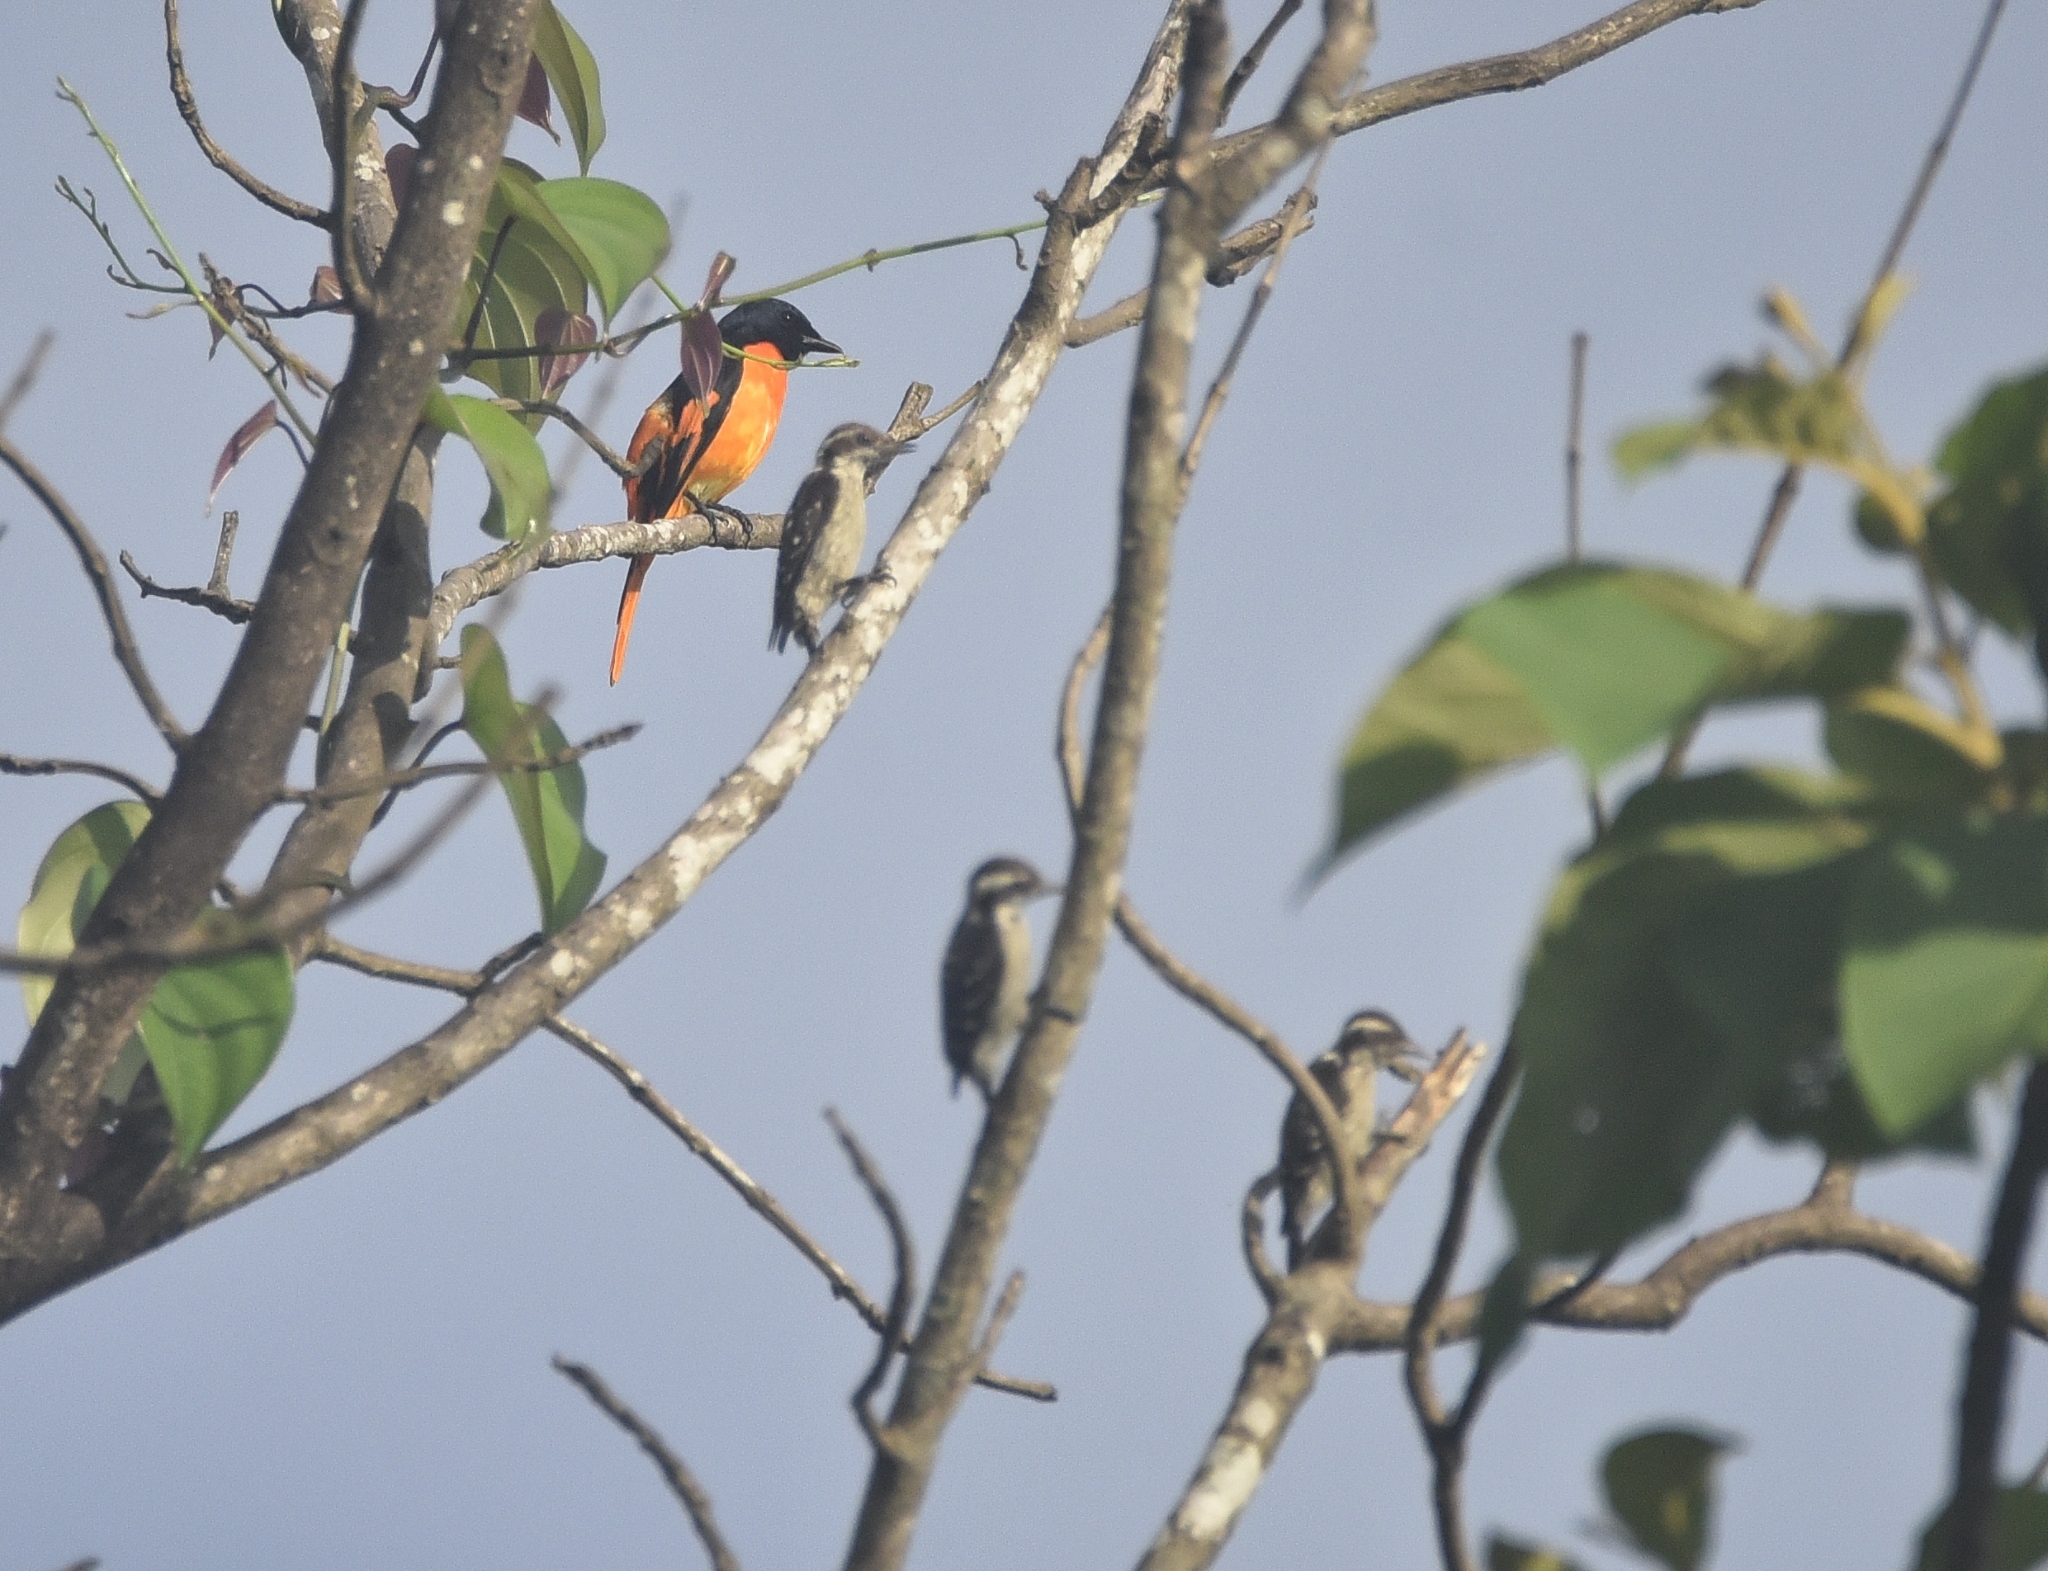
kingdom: Animalia
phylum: Chordata
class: Aves
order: Passeriformes
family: Campephagidae
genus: Pericrocotus
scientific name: Pericrocotus flammeus
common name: Orange minivet
